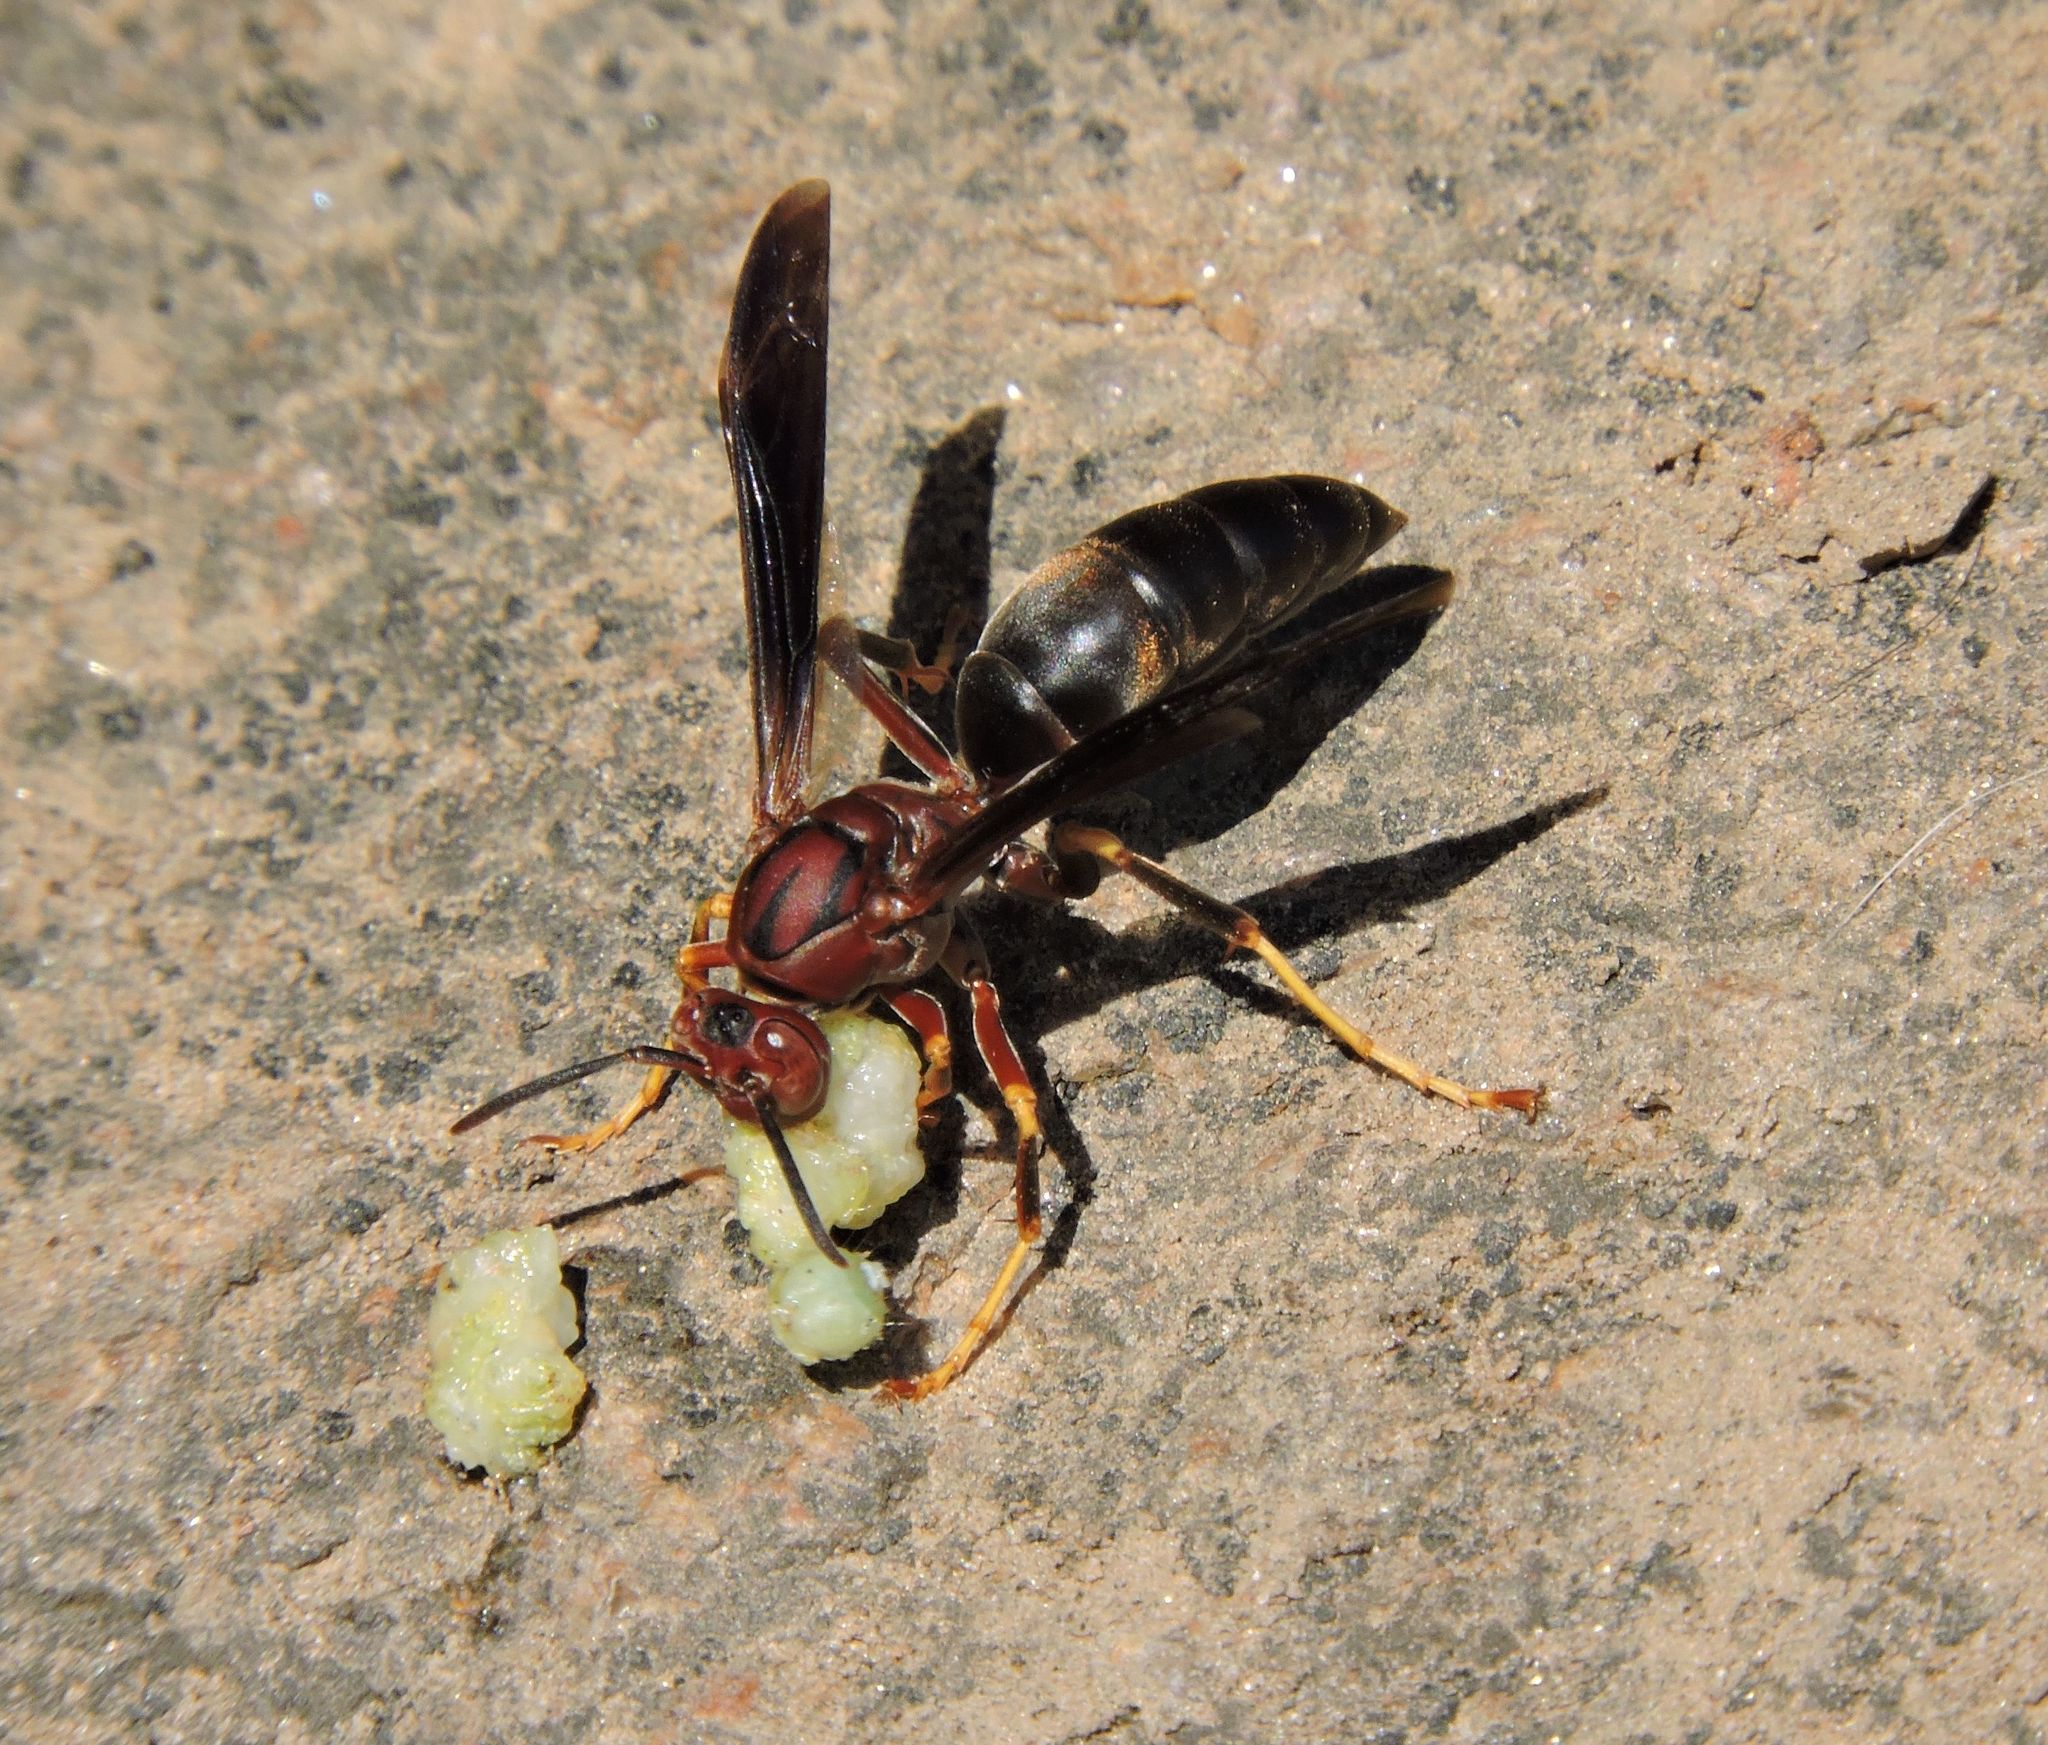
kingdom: Animalia
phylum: Arthropoda
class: Insecta
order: Hymenoptera
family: Eumenidae
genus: Polistes
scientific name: Polistes metricus
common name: Metric paper wasp
